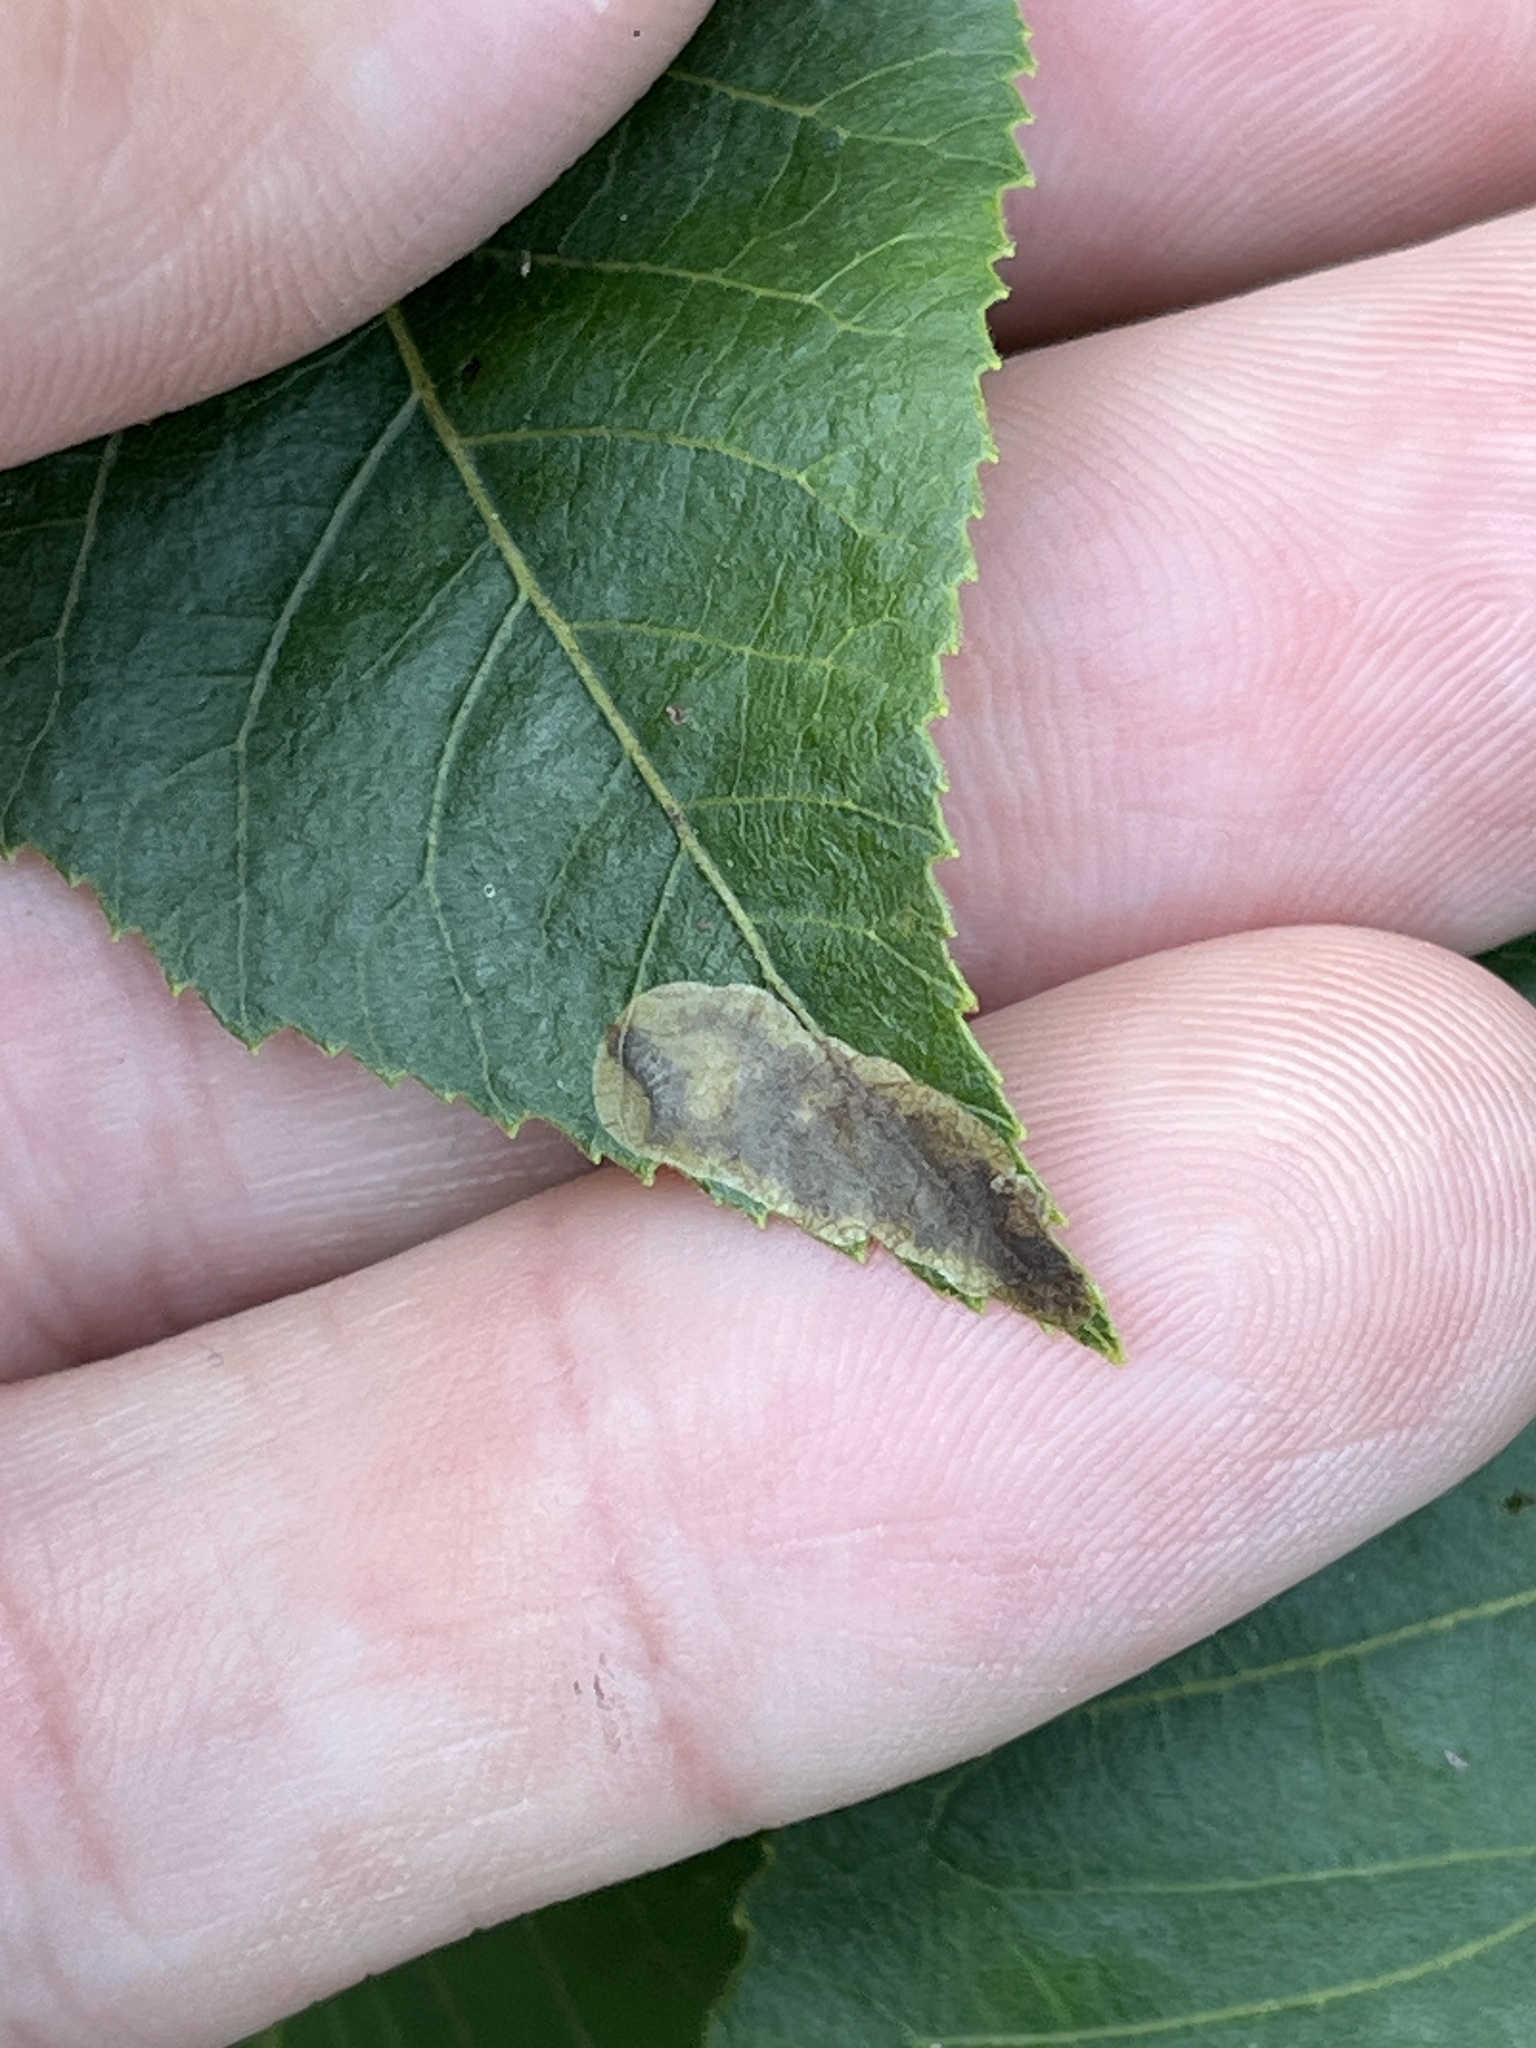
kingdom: Animalia
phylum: Arthropoda
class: Insecta
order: Lepidoptera
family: Gracillariidae
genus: Cameraria
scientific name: Cameraria caryaefoliella
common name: Pecan leafminer moth
